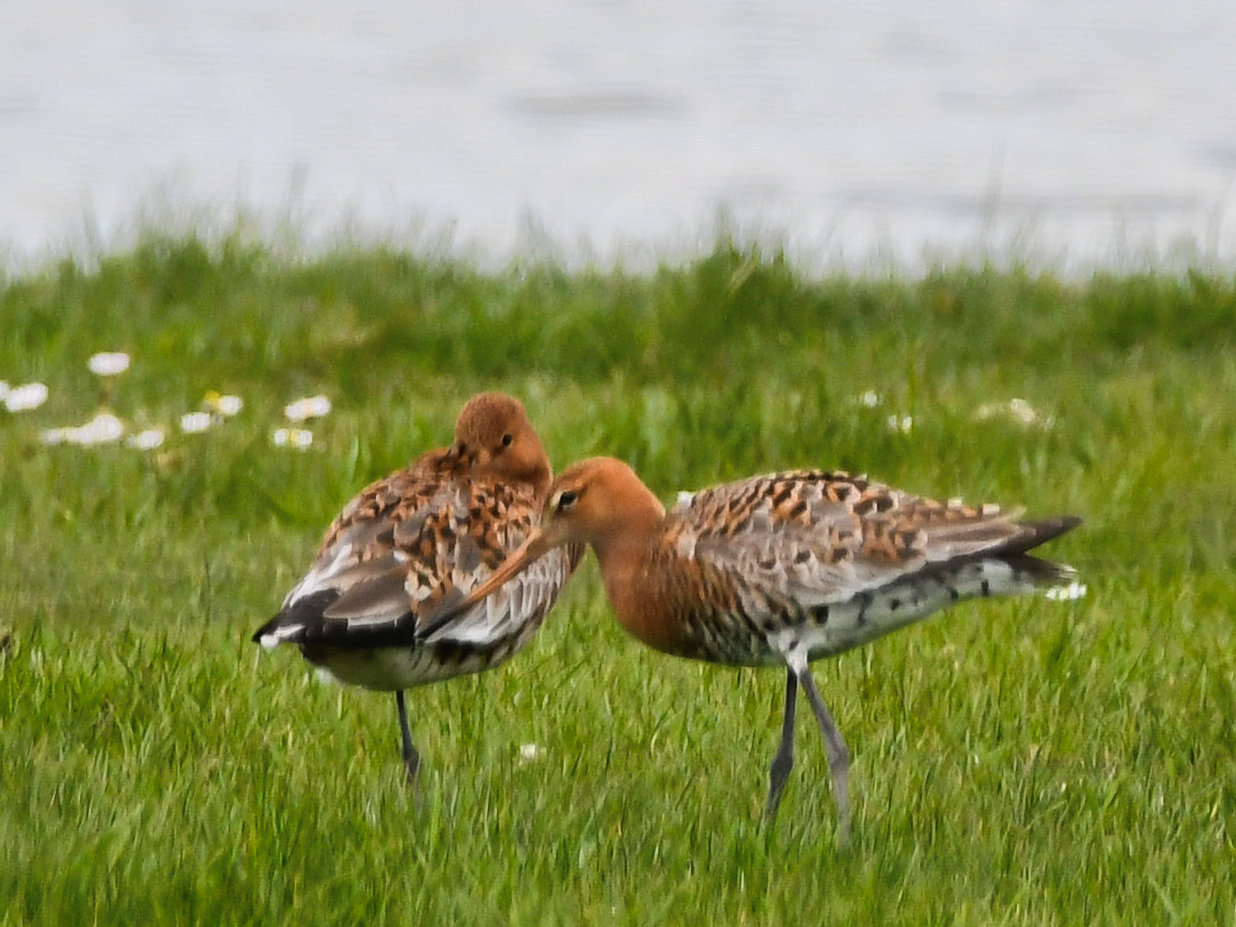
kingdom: Animalia
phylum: Chordata
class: Aves
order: Charadriiformes
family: Scolopacidae
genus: Limosa
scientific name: Limosa limosa
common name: Black-tailed godwit
